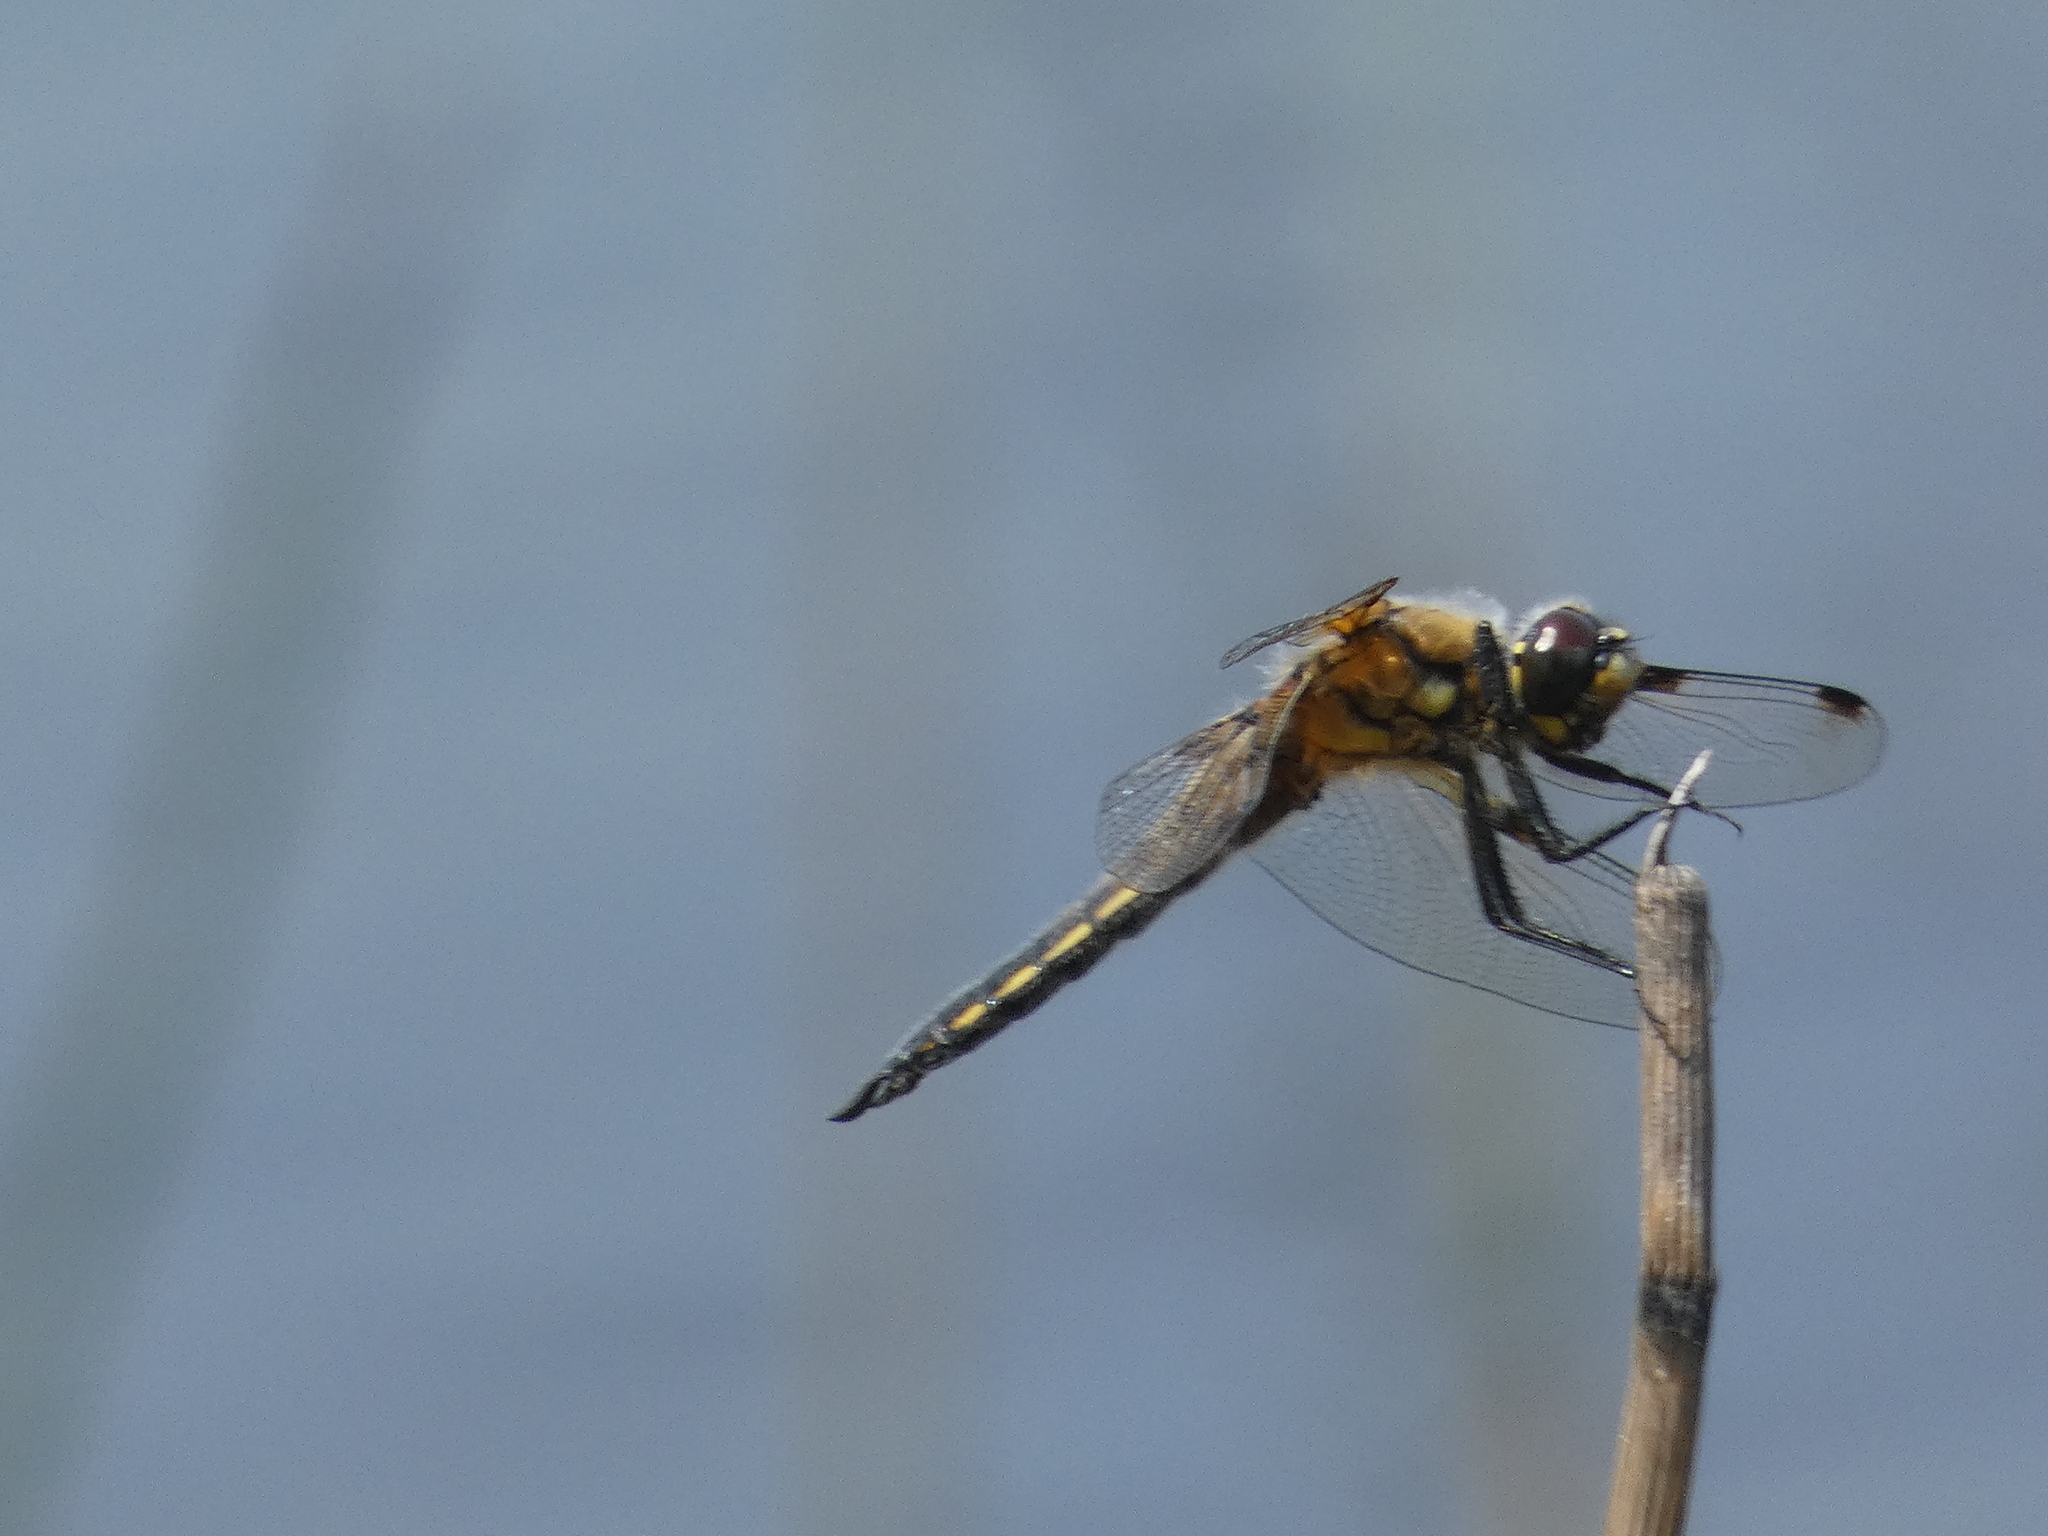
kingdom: Animalia
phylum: Arthropoda
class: Insecta
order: Odonata
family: Libellulidae
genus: Libellula
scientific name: Libellula quadrimaculata
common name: Four-spotted chaser
